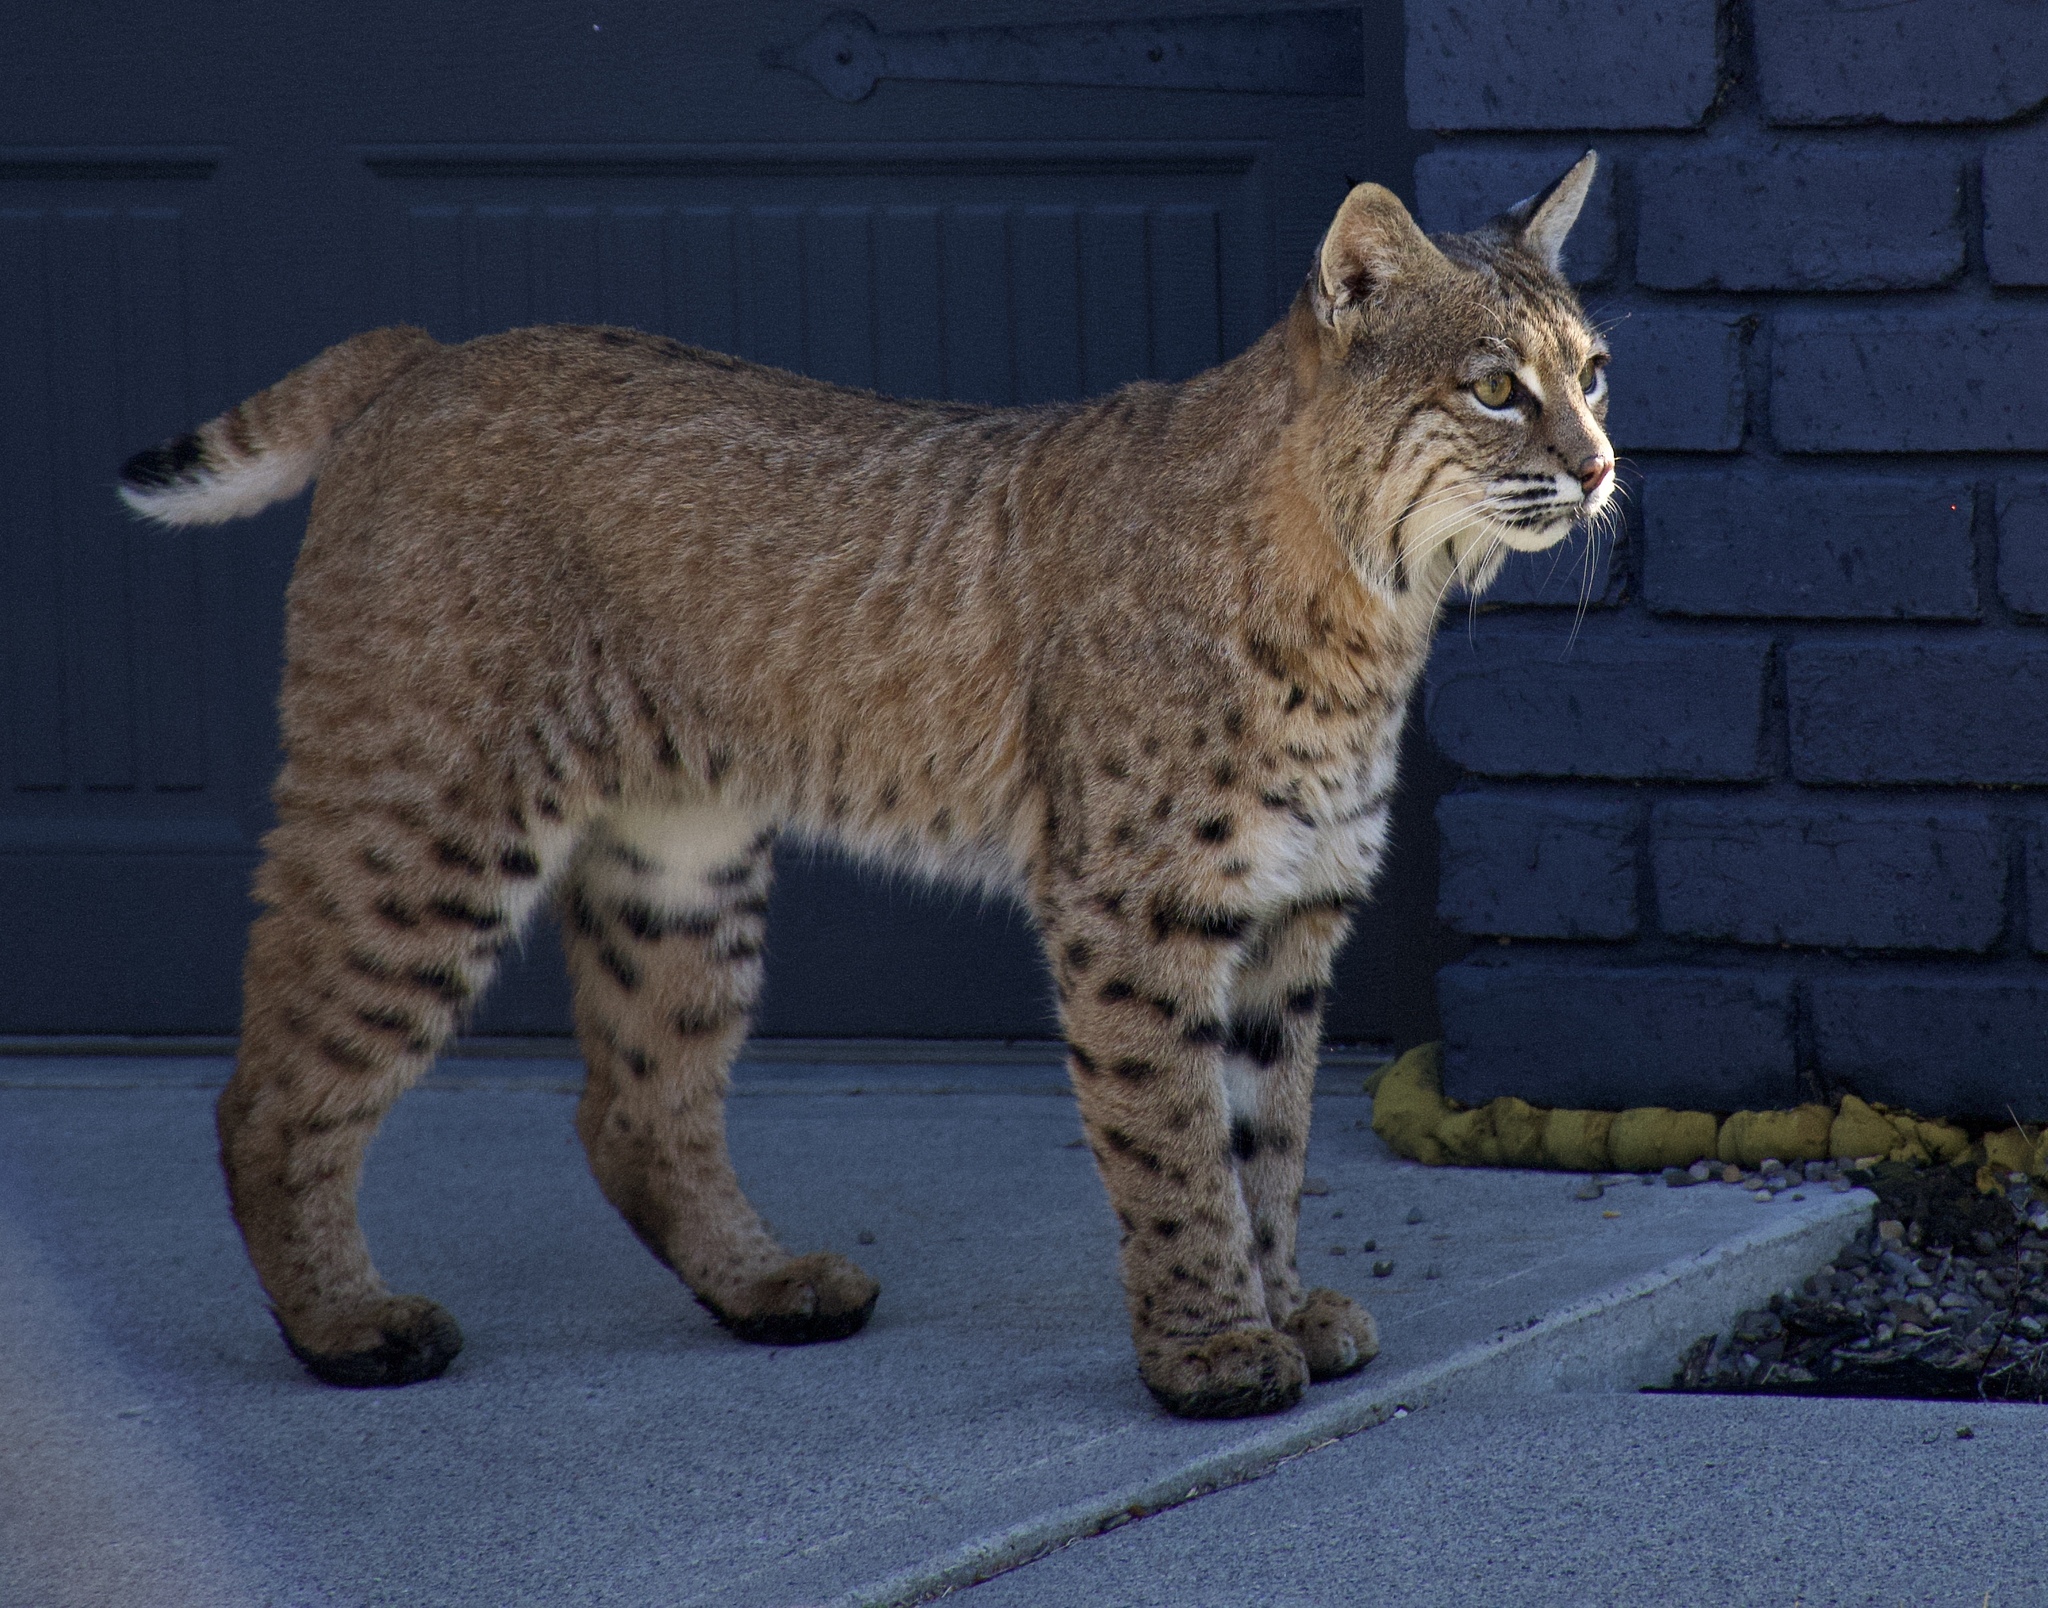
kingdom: Animalia
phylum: Chordata
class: Mammalia
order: Carnivora
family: Felidae
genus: Lynx
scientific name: Lynx rufus
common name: Bobcat
